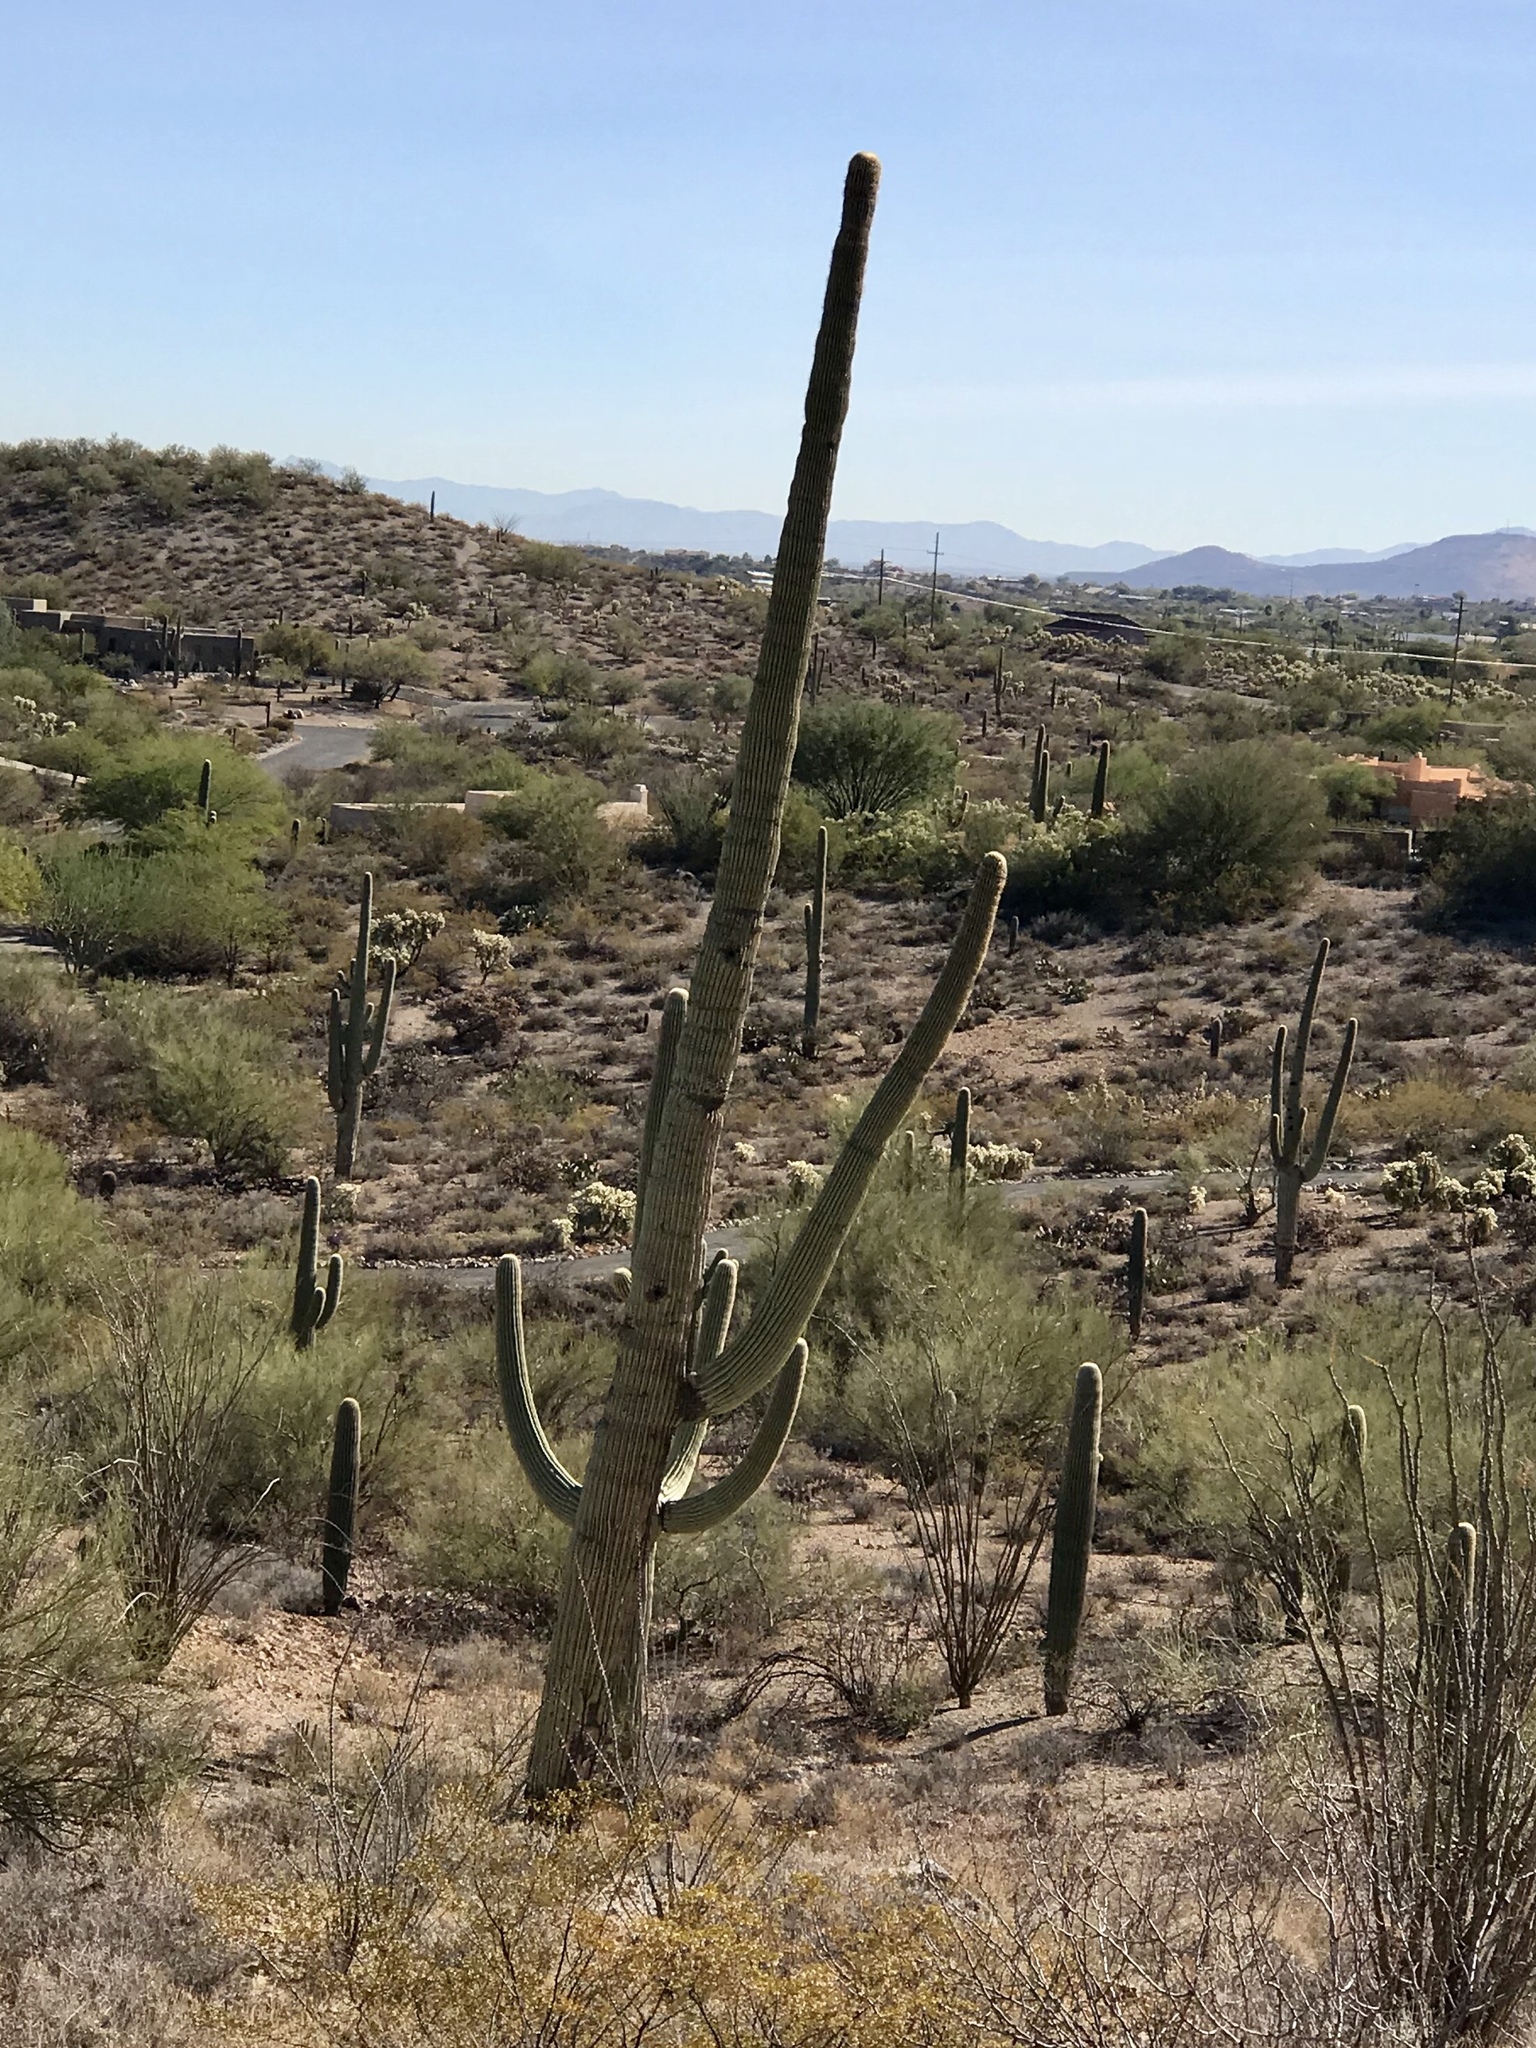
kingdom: Plantae
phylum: Tracheophyta
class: Magnoliopsida
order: Caryophyllales
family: Cactaceae
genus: Carnegiea
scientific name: Carnegiea gigantea
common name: Saguaro
